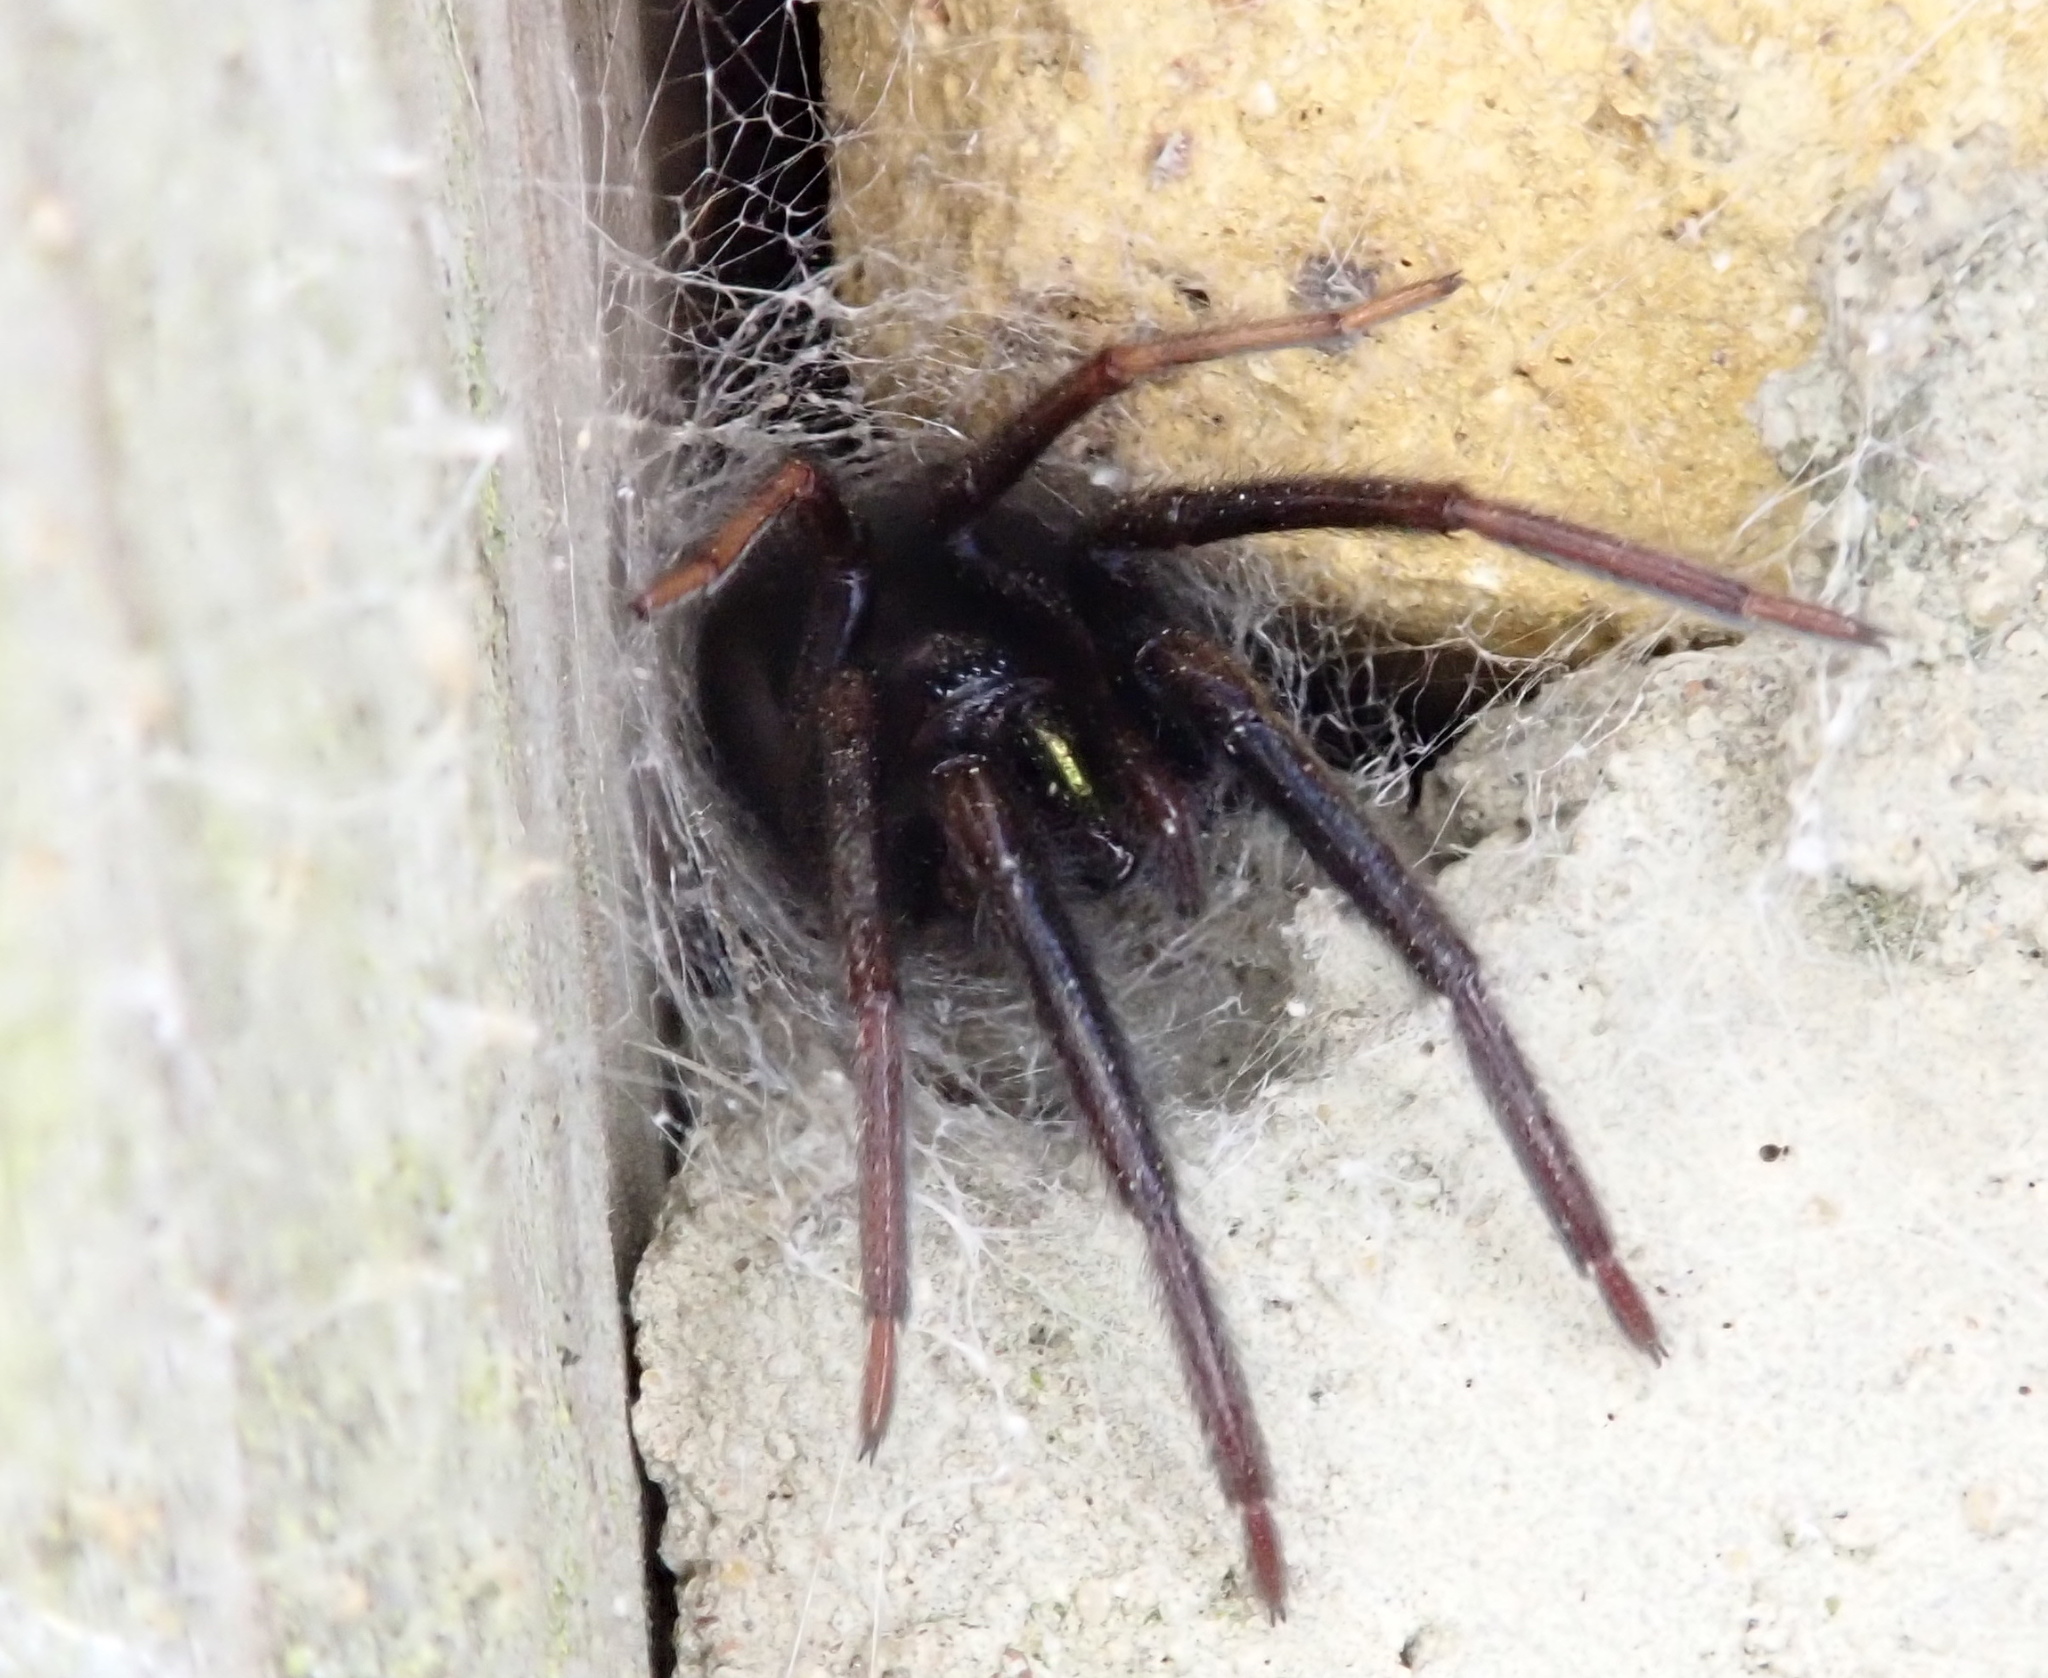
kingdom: Animalia
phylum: Arthropoda
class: Arachnida
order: Araneae
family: Segestriidae
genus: Segestria
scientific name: Segestria florentina
